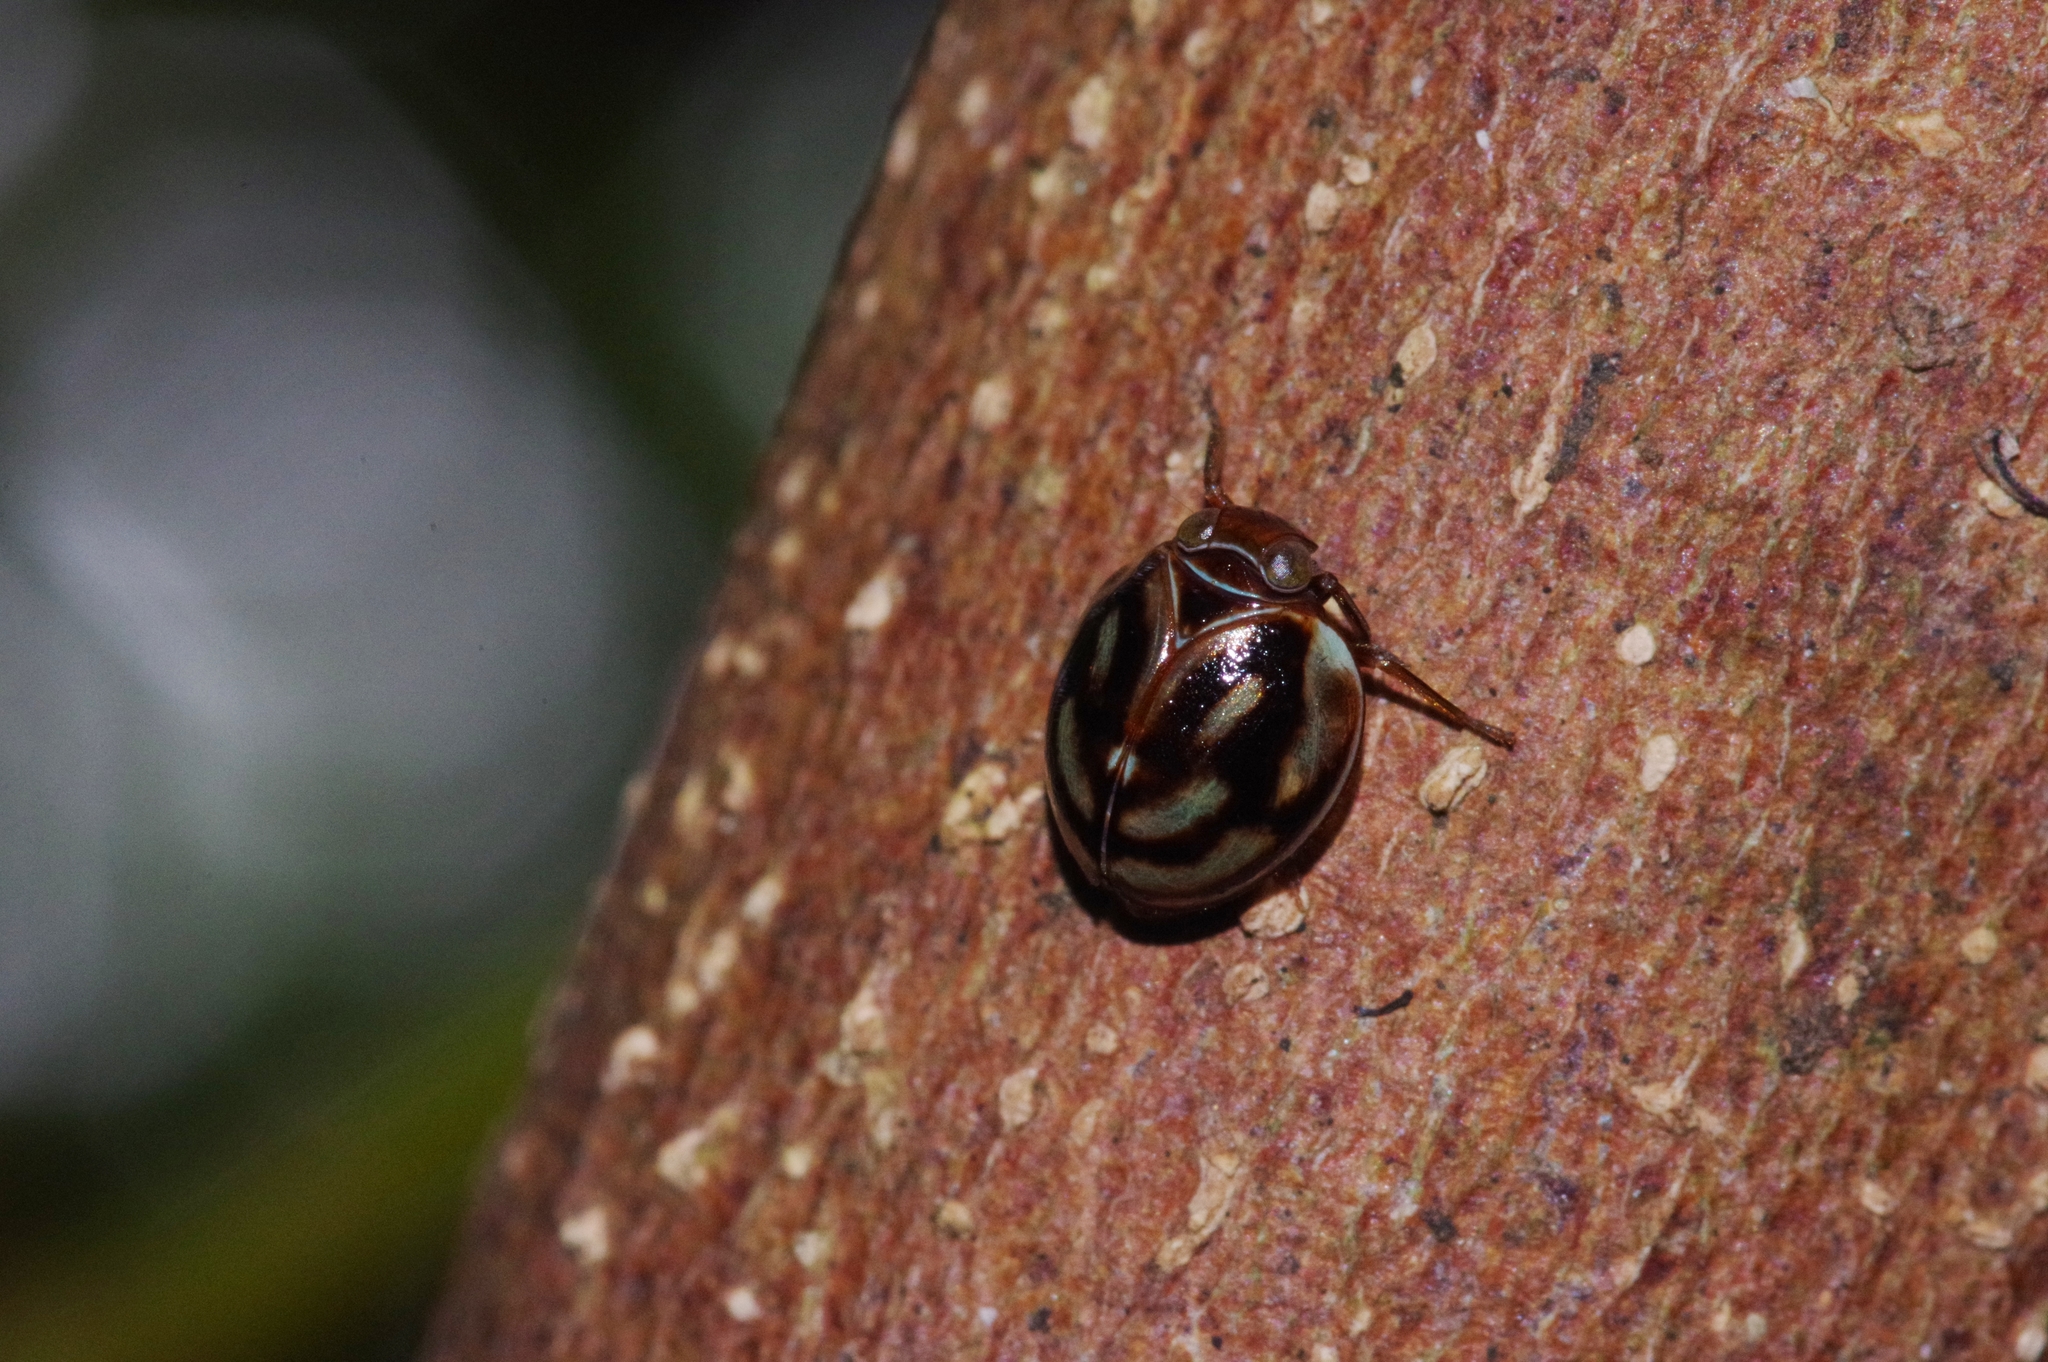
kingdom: Animalia
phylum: Arthropoda
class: Insecta
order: Hemiptera
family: Issidae
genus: Gnezdilovius
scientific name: Gnezdilovius okinawanus
